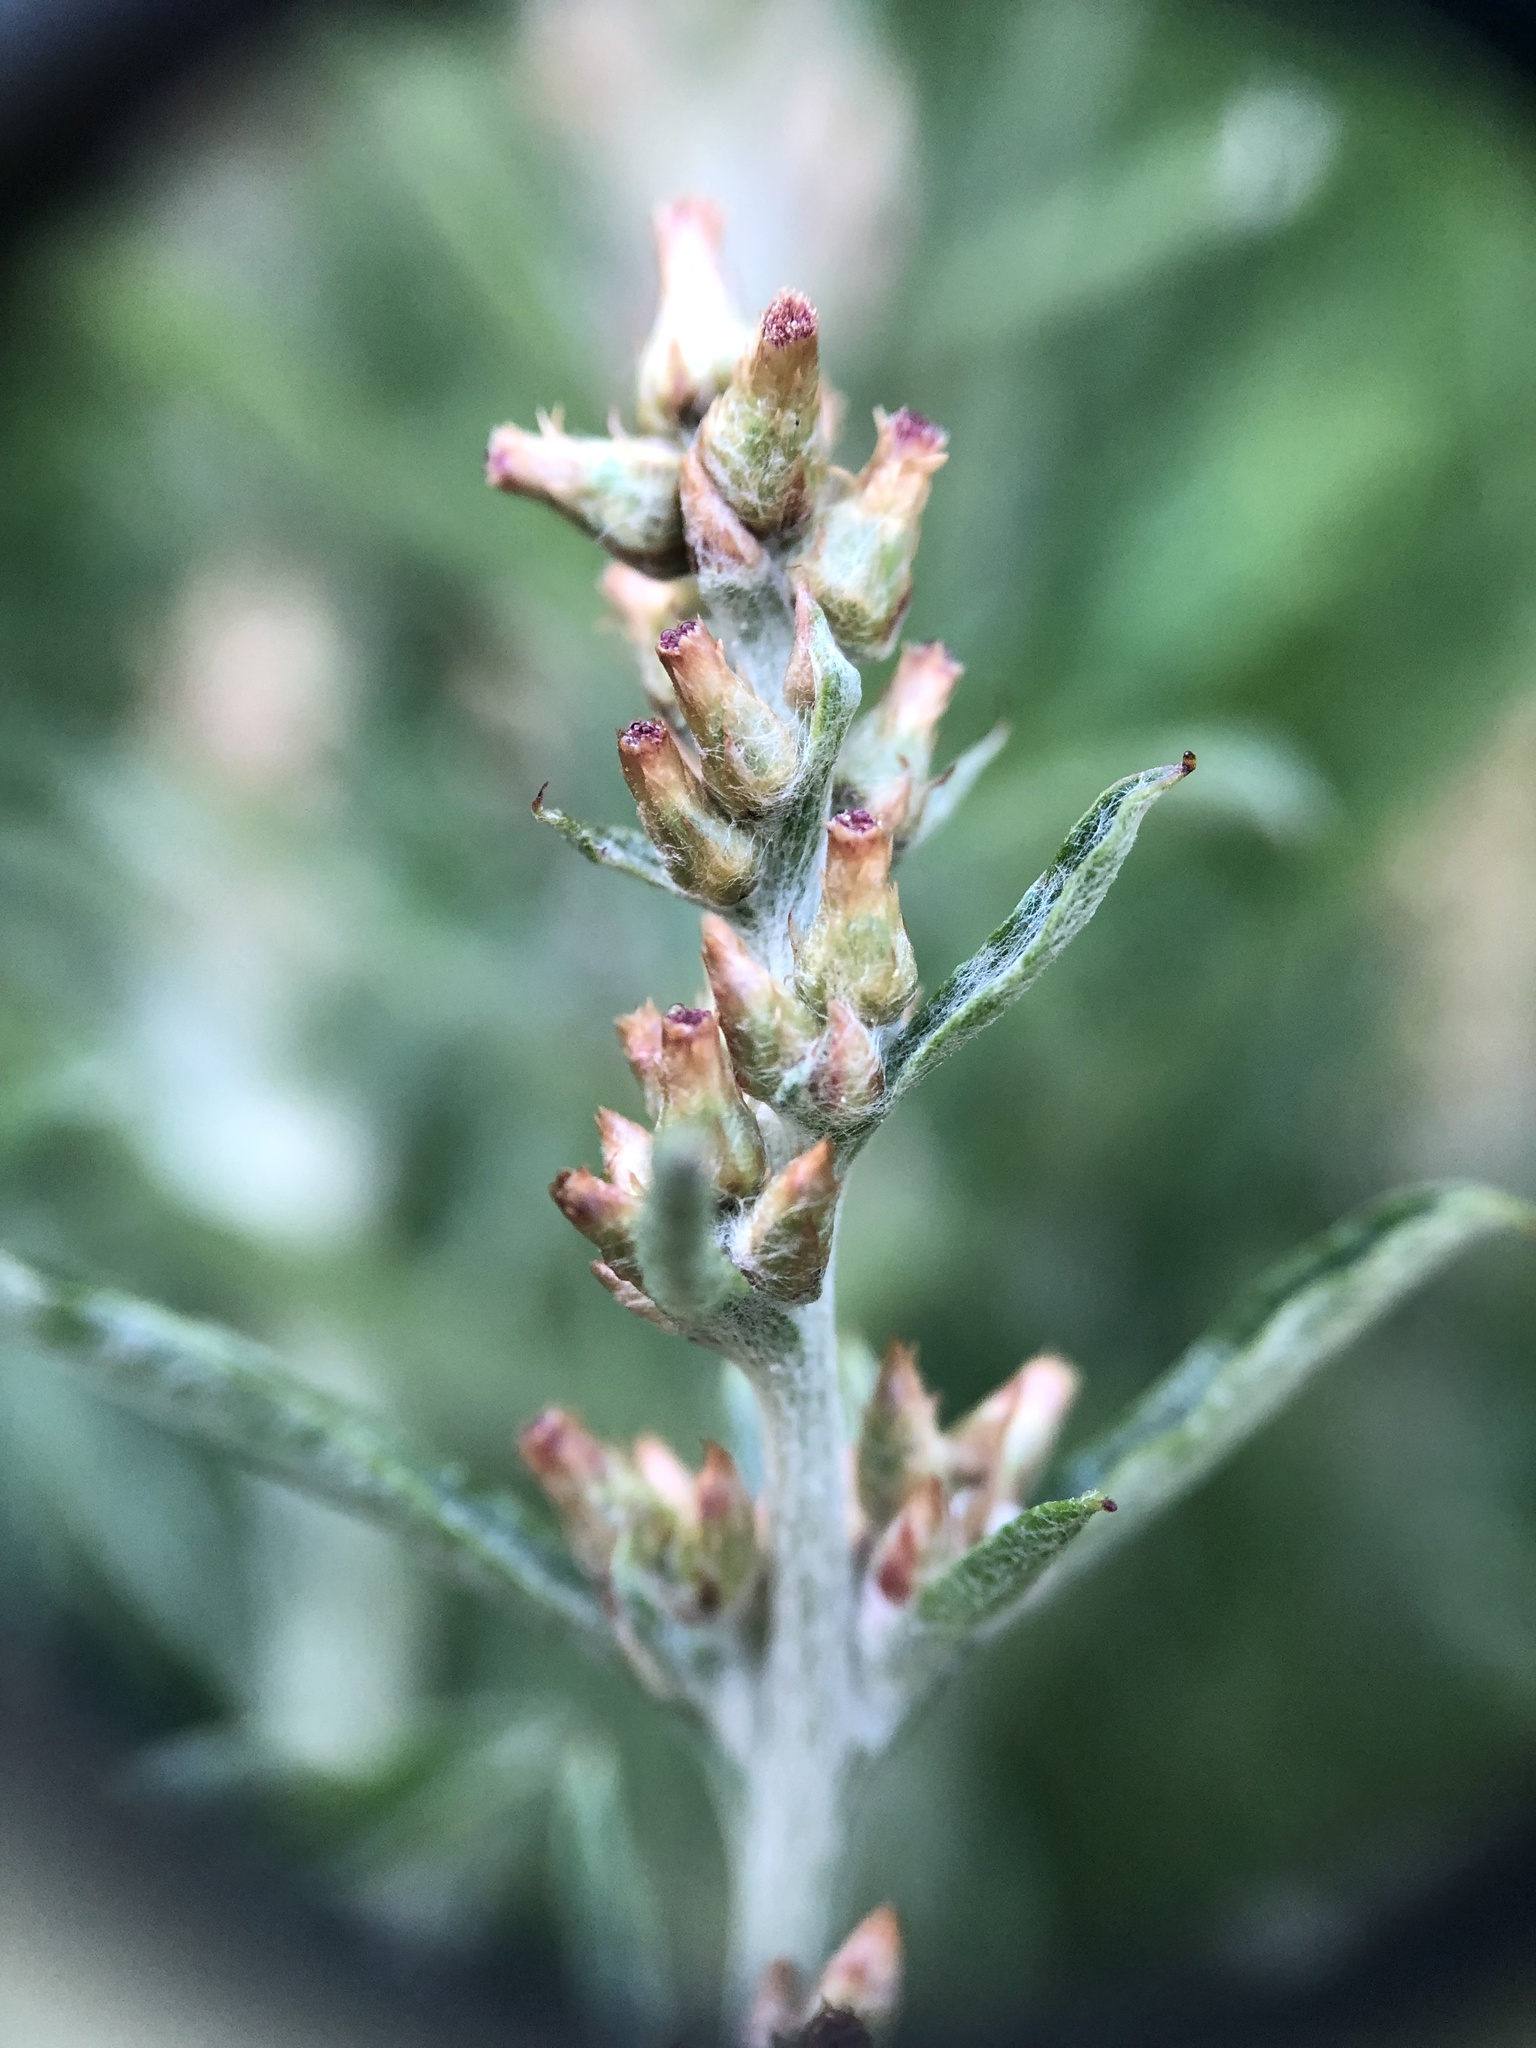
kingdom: Plantae
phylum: Tracheophyta
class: Magnoliopsida
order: Asterales
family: Asteraceae
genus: Gamochaeta
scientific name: Gamochaeta purpurea
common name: Purple cudweed
